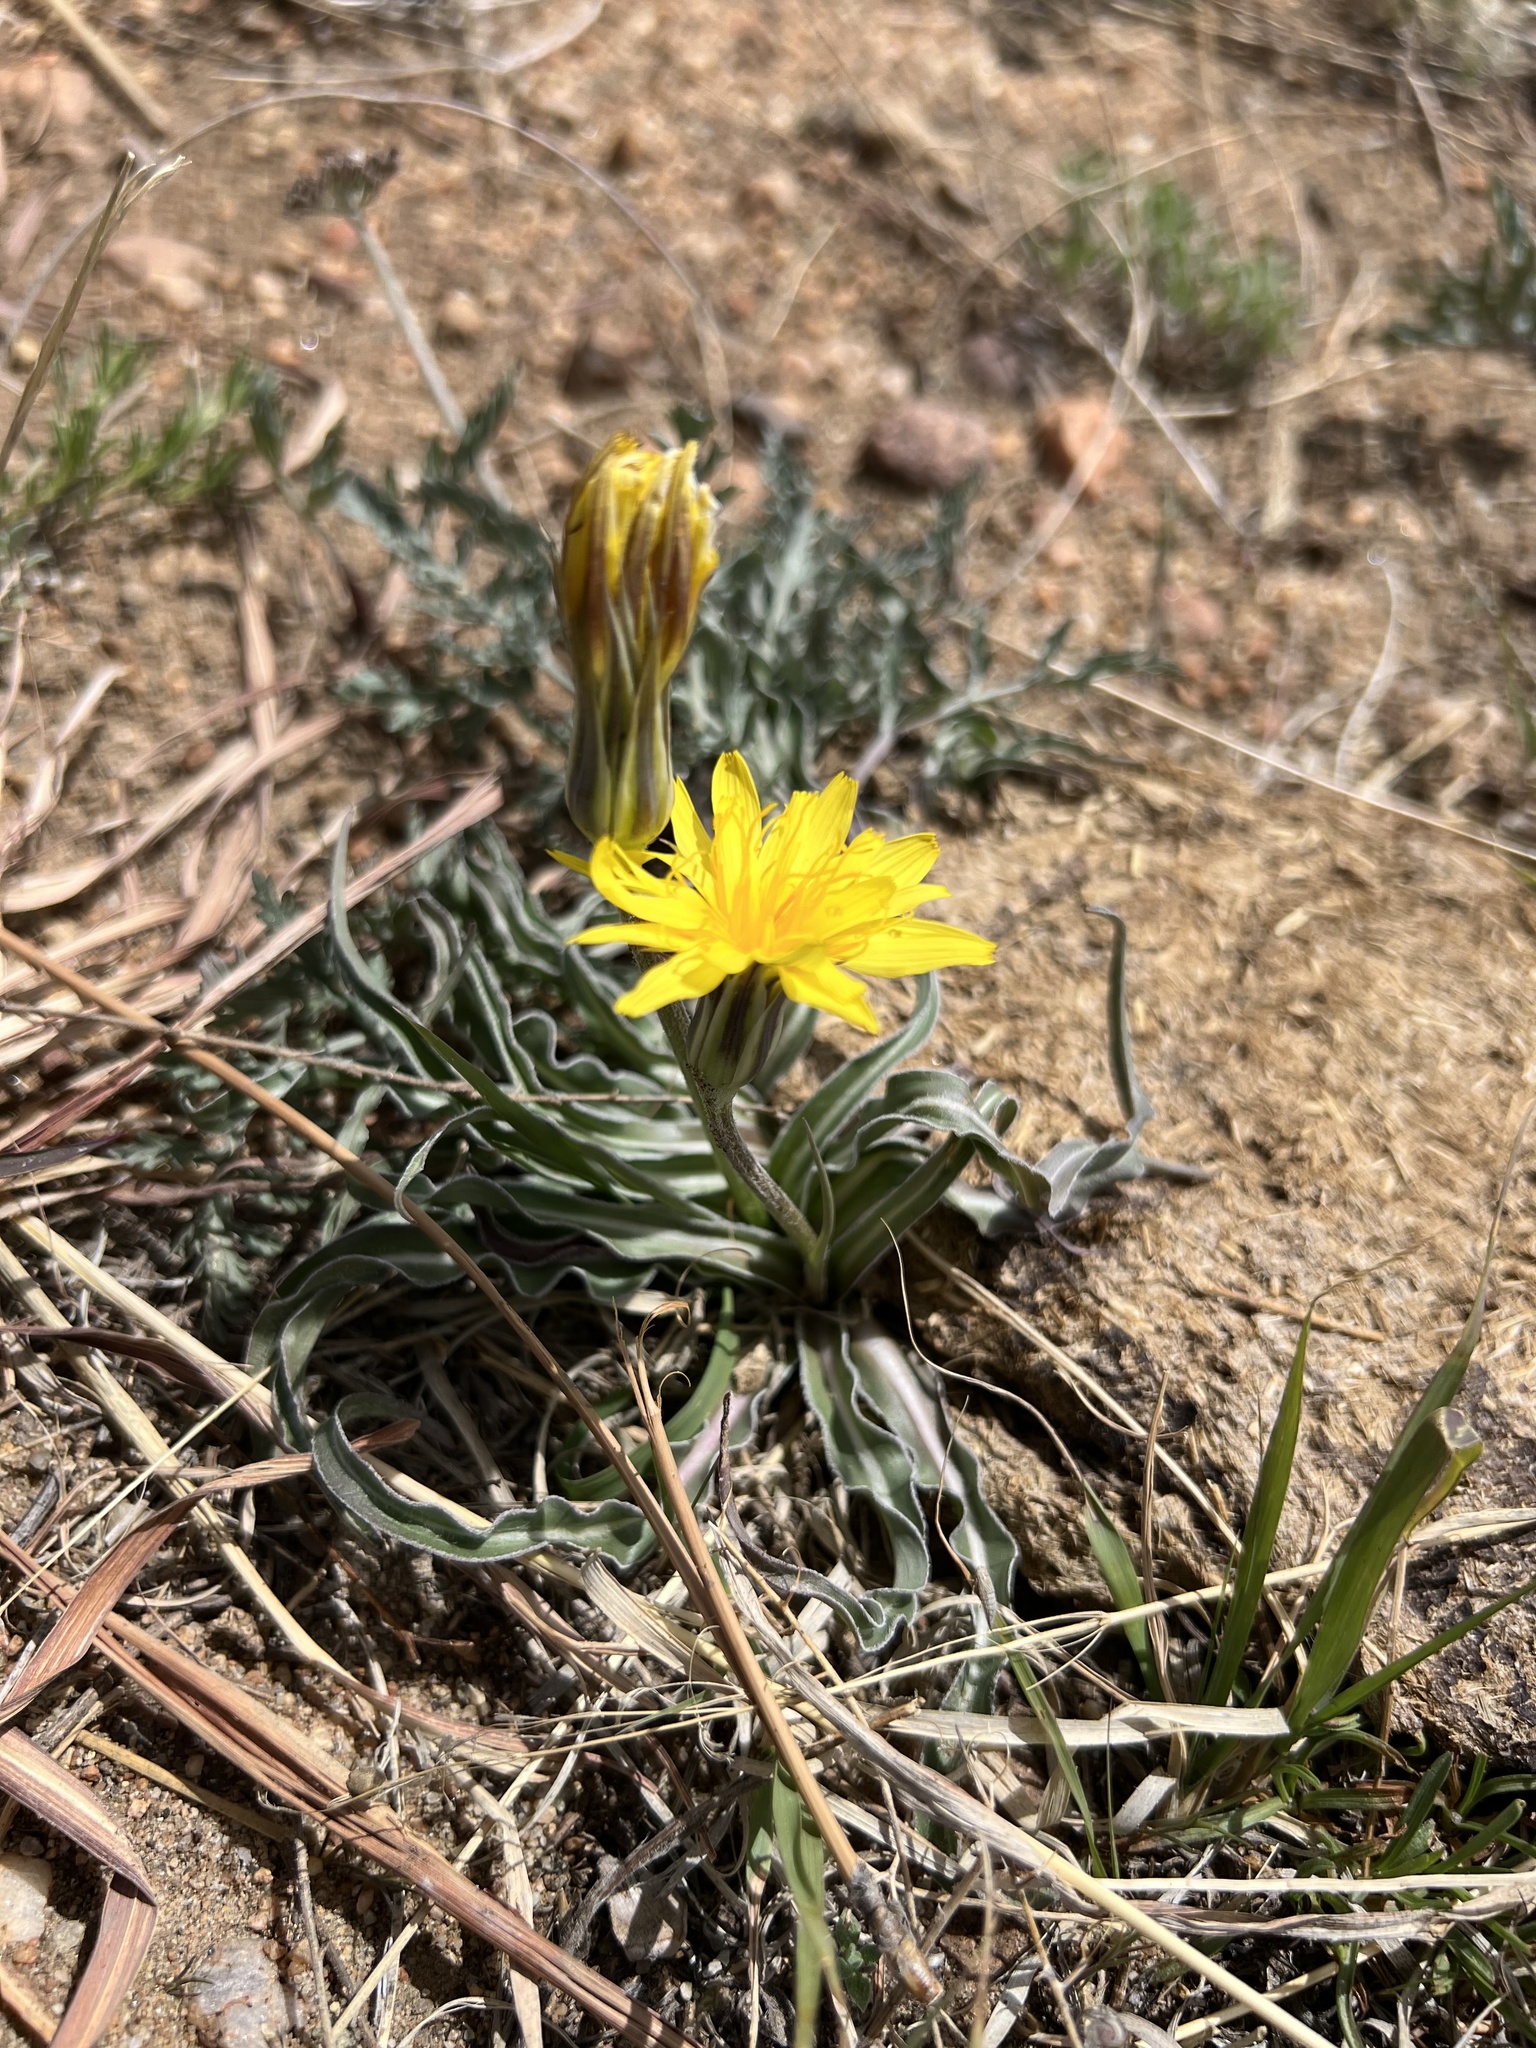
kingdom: Plantae
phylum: Tracheophyta
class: Magnoliopsida
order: Asterales
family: Asteraceae
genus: Microseris
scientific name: Microseris cuspidata
